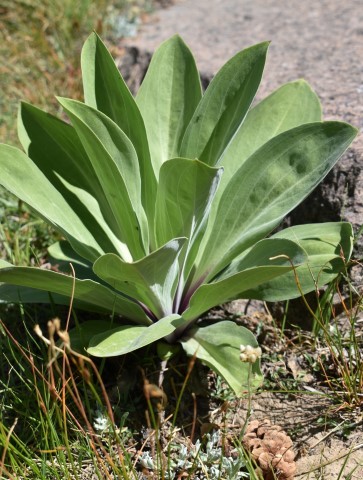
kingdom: Plantae
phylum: Tracheophyta
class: Magnoliopsida
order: Gentianales
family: Gentianaceae
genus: Frasera
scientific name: Frasera speciosa
